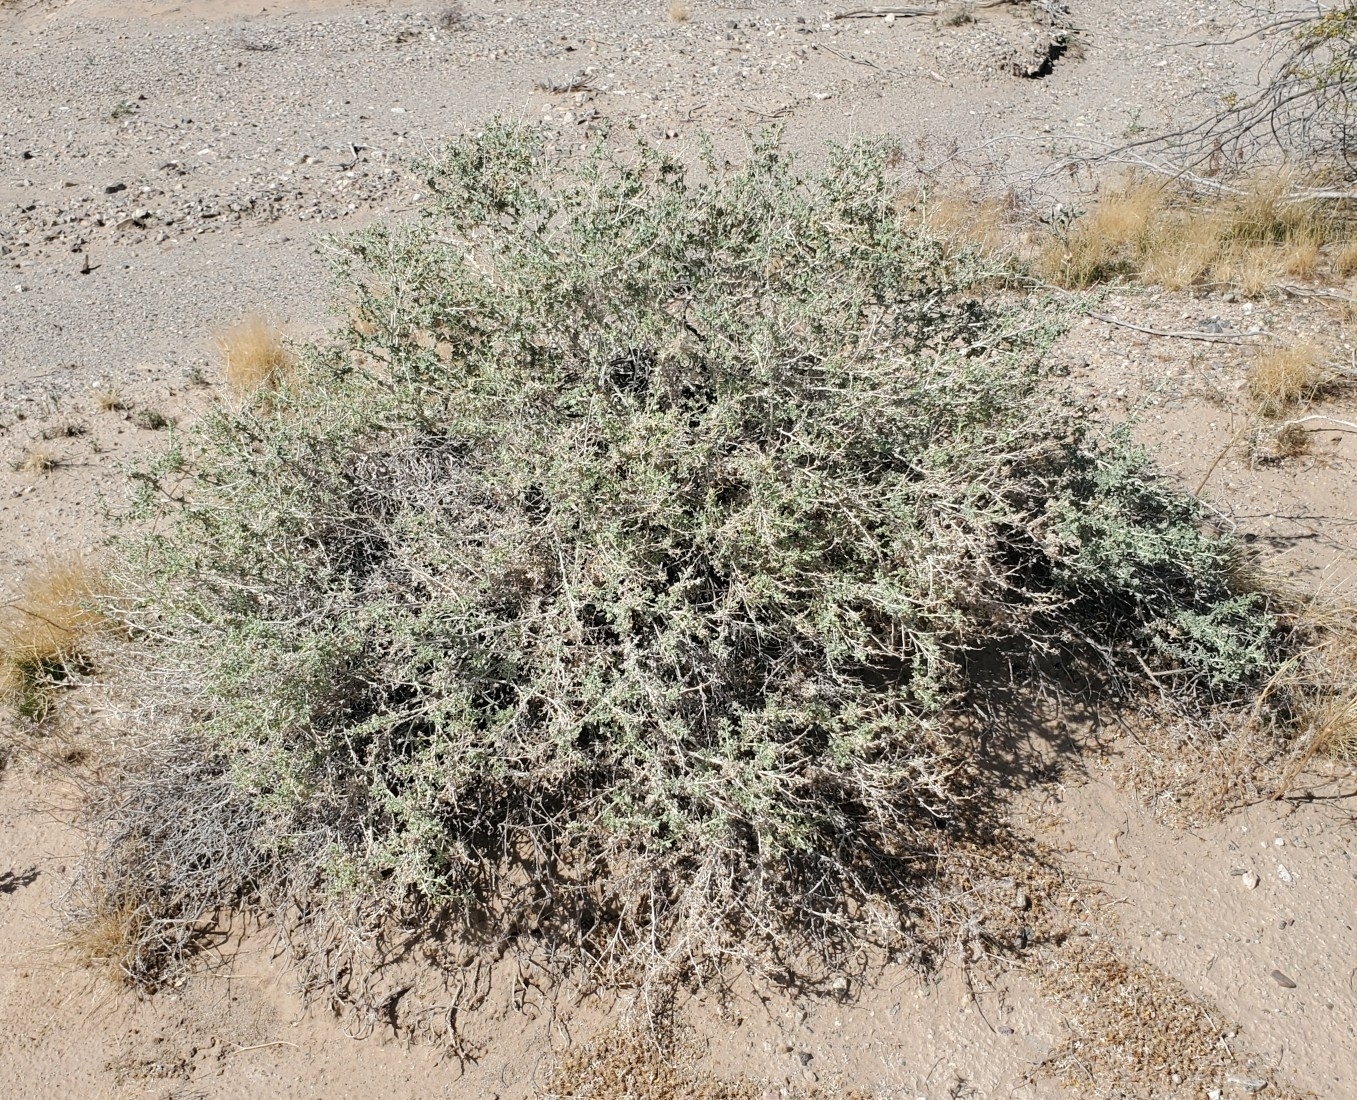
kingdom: Plantae
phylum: Tracheophyta
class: Magnoliopsida
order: Asterales
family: Asteraceae
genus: Ambrosia
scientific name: Ambrosia dumosa
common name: Bur-sage
